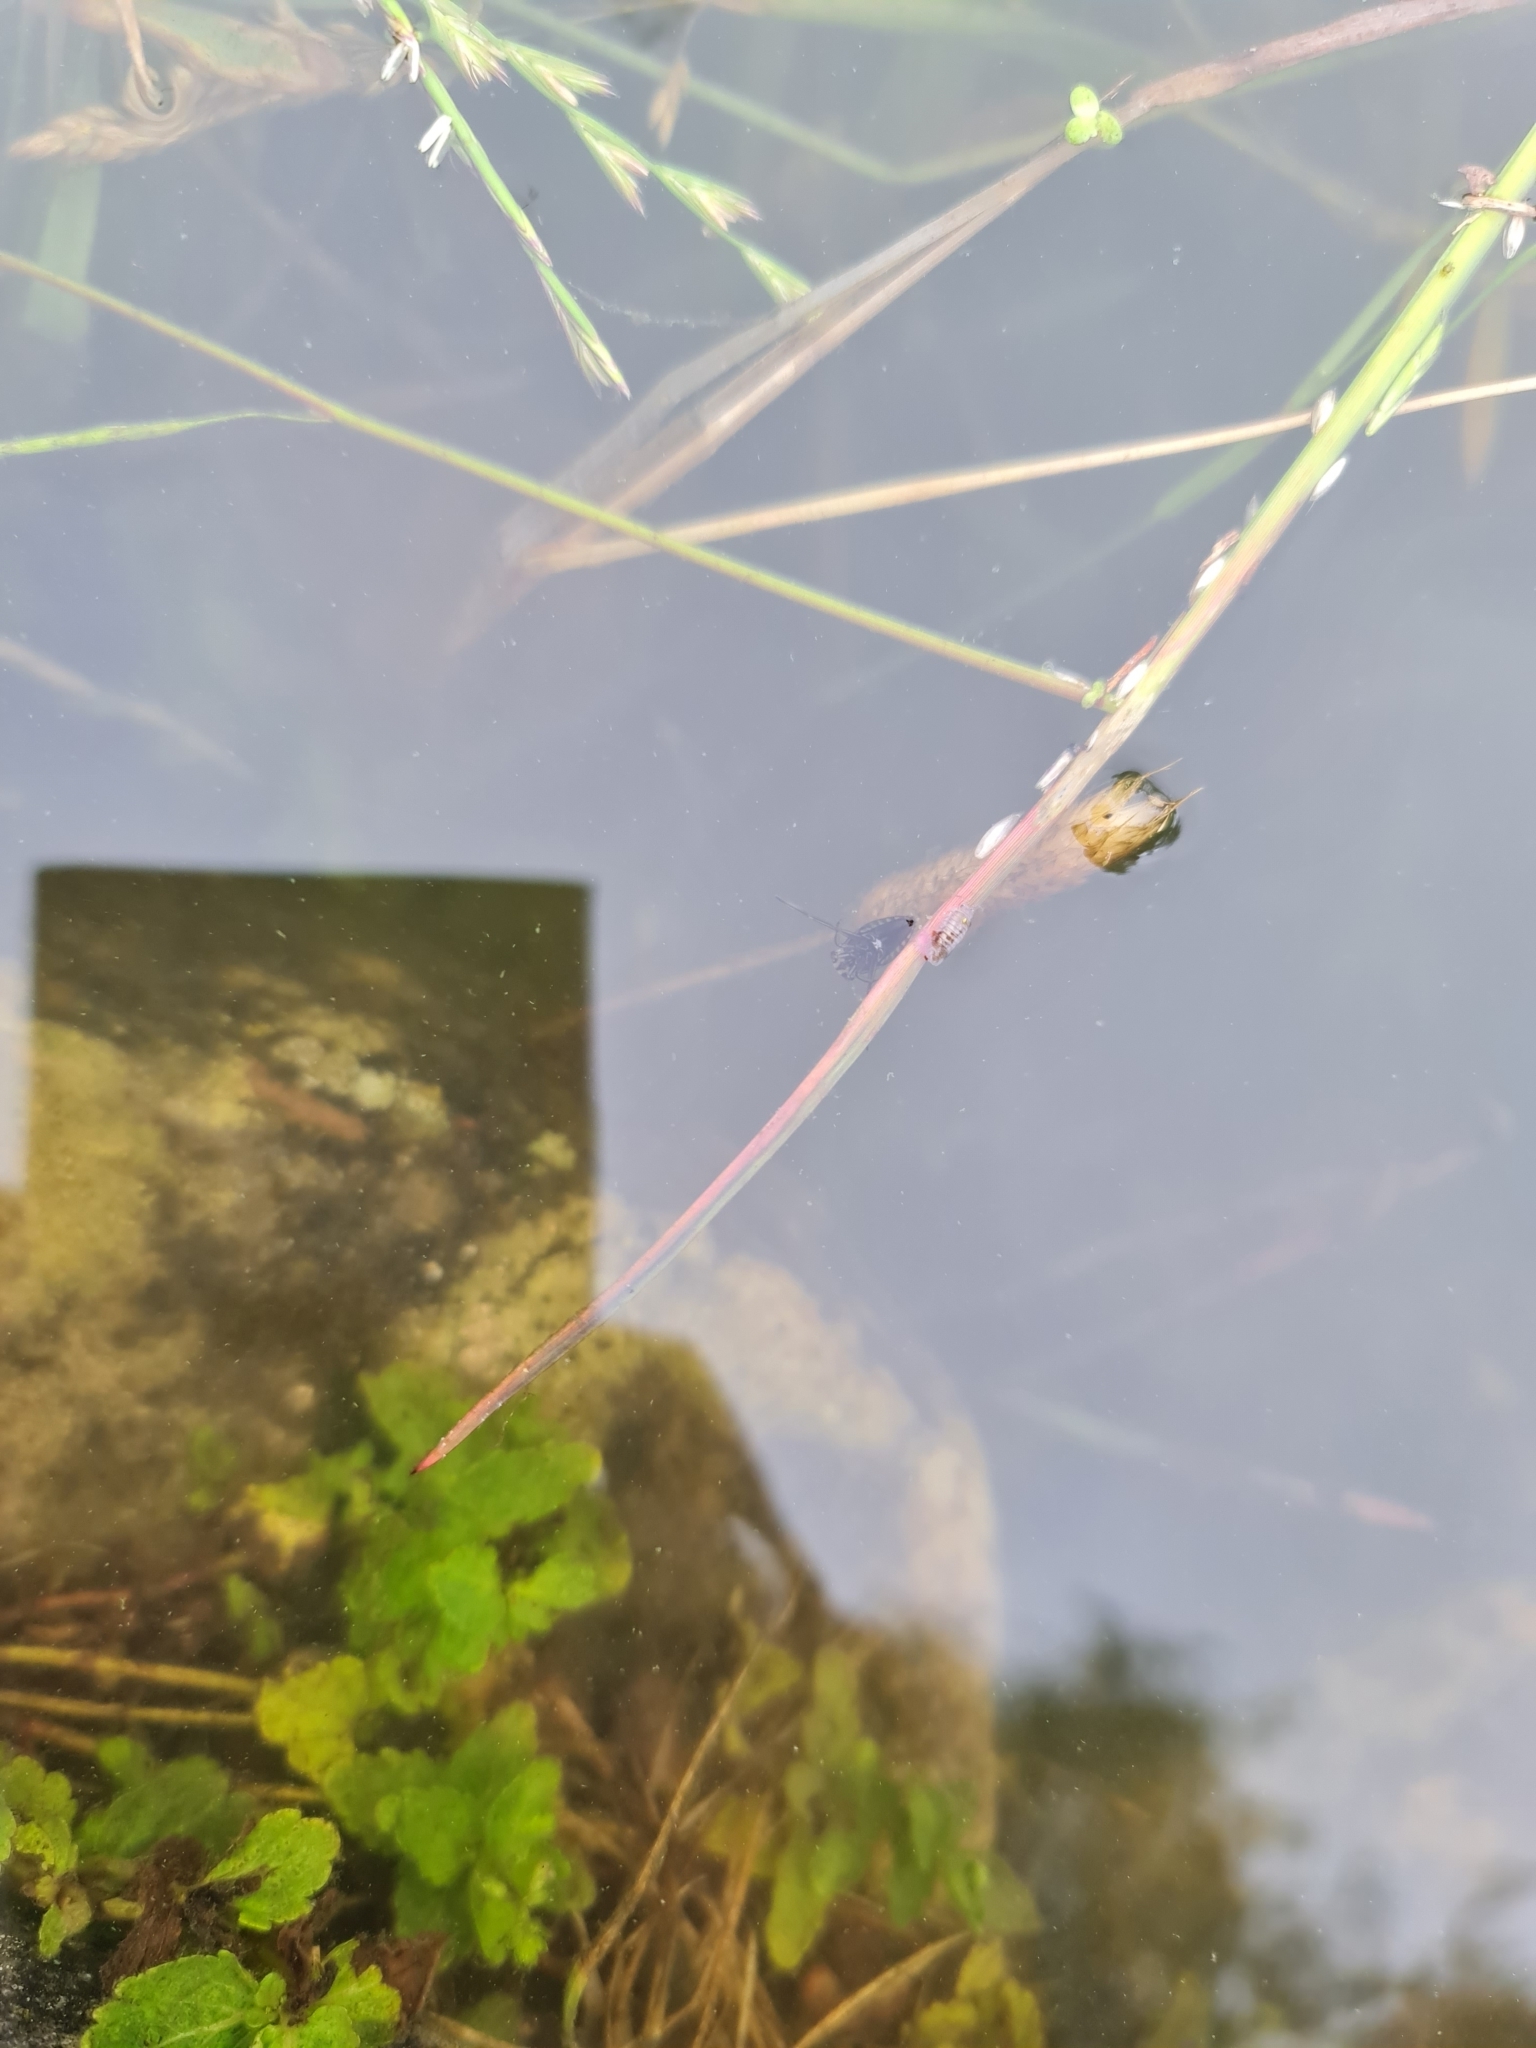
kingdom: Animalia
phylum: Arthropoda
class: Insecta
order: Hemiptera
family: Notonectidae
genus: Notonecta
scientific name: Notonecta glauca
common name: Common water-boatman
